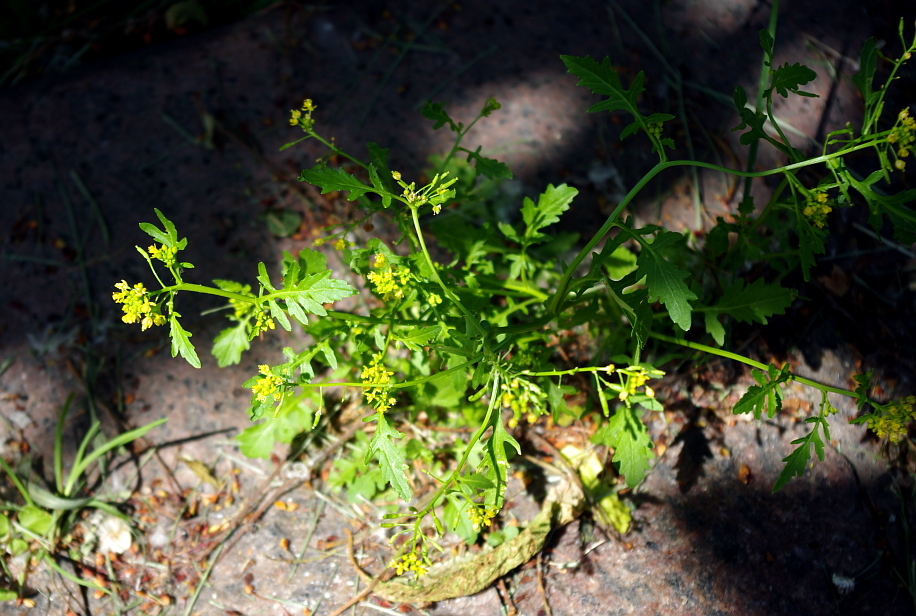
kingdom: Plantae
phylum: Tracheophyta
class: Magnoliopsida
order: Brassicales
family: Brassicaceae
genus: Rorippa
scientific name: Rorippa palustris
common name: Marsh yellow-cress
